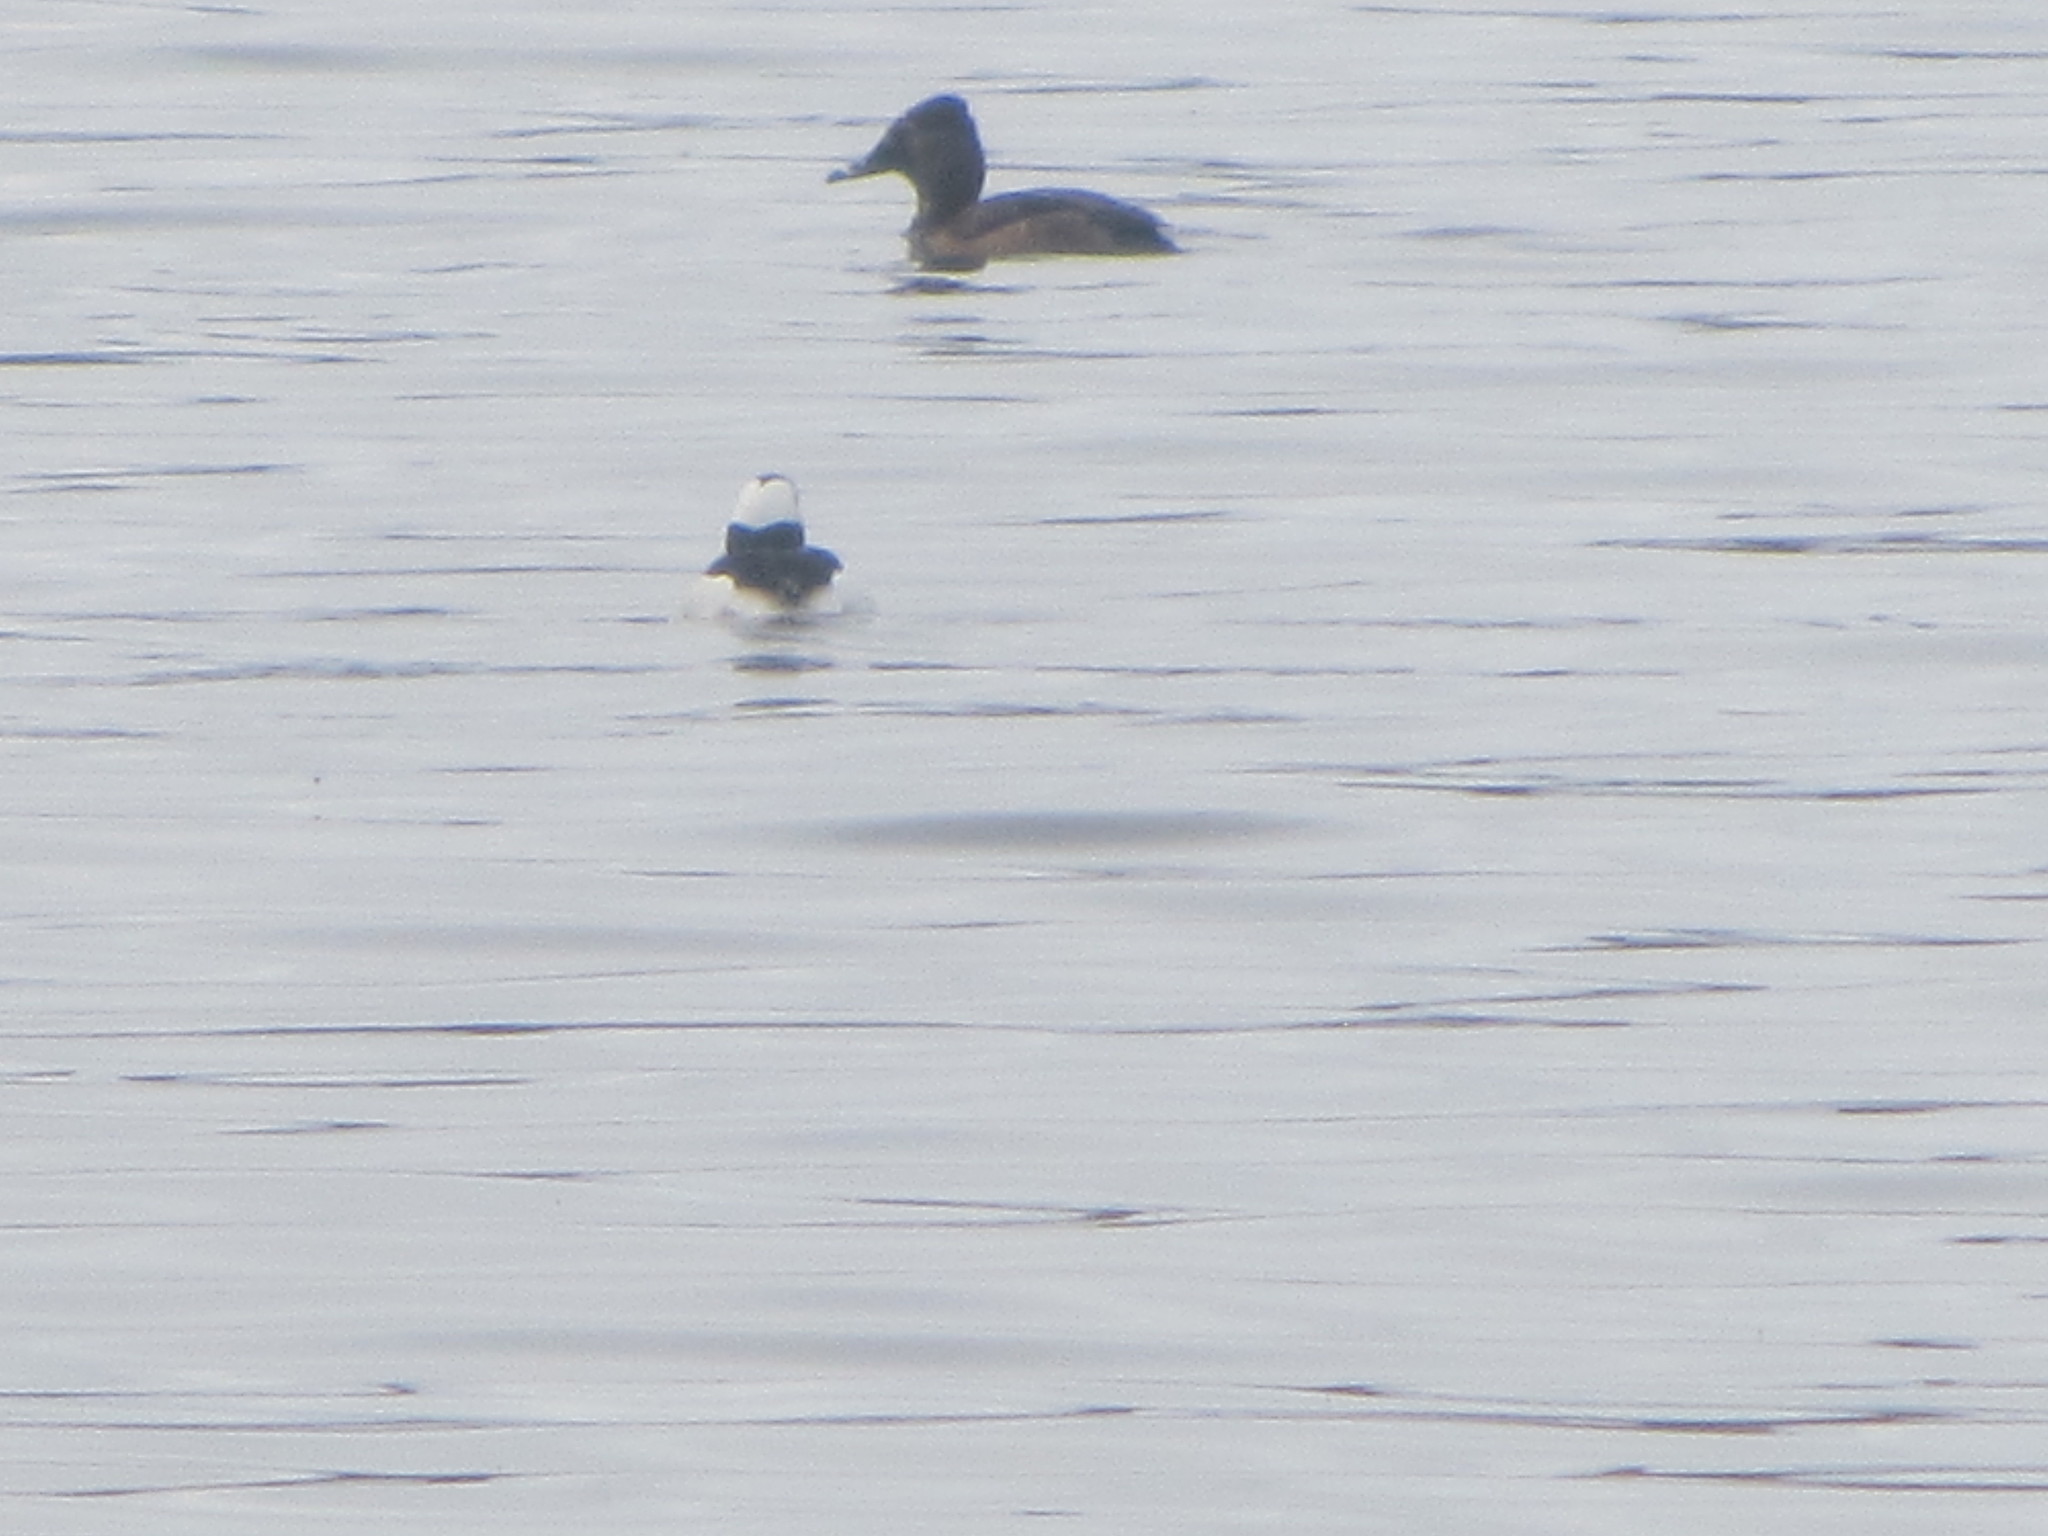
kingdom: Animalia
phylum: Chordata
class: Aves
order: Anseriformes
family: Anatidae
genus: Bucephala
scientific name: Bucephala albeola
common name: Bufflehead
